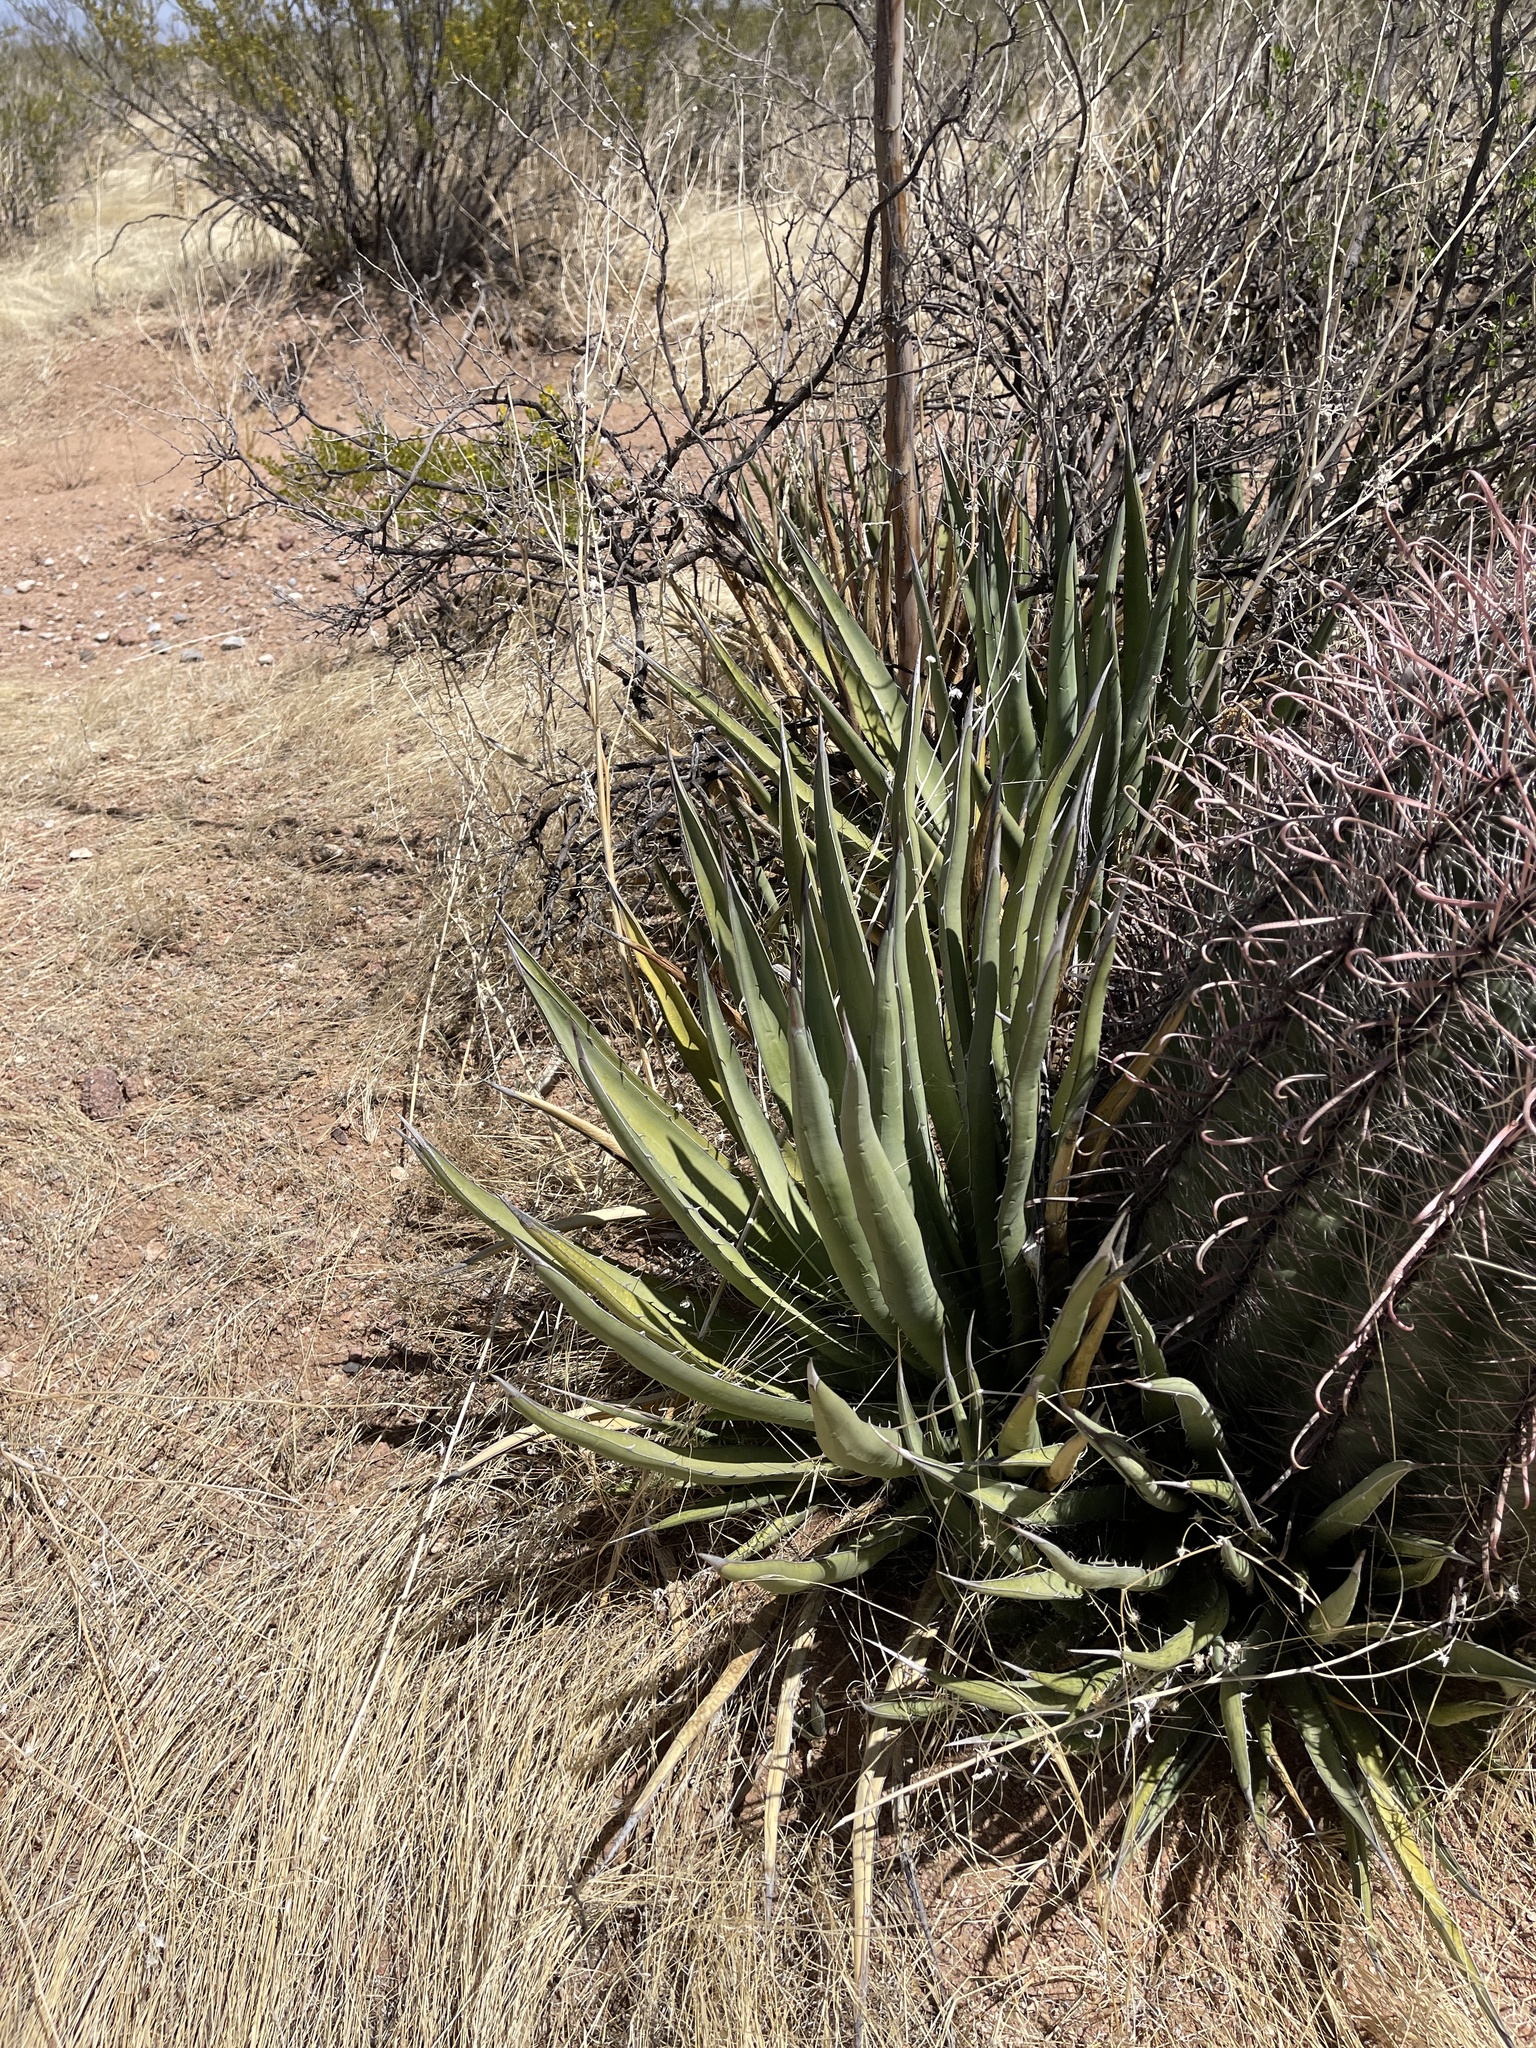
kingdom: Plantae
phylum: Tracheophyta
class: Liliopsida
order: Asparagales
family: Asparagaceae
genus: Agave
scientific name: Agave lechuguilla
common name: Lecheguilla agave
